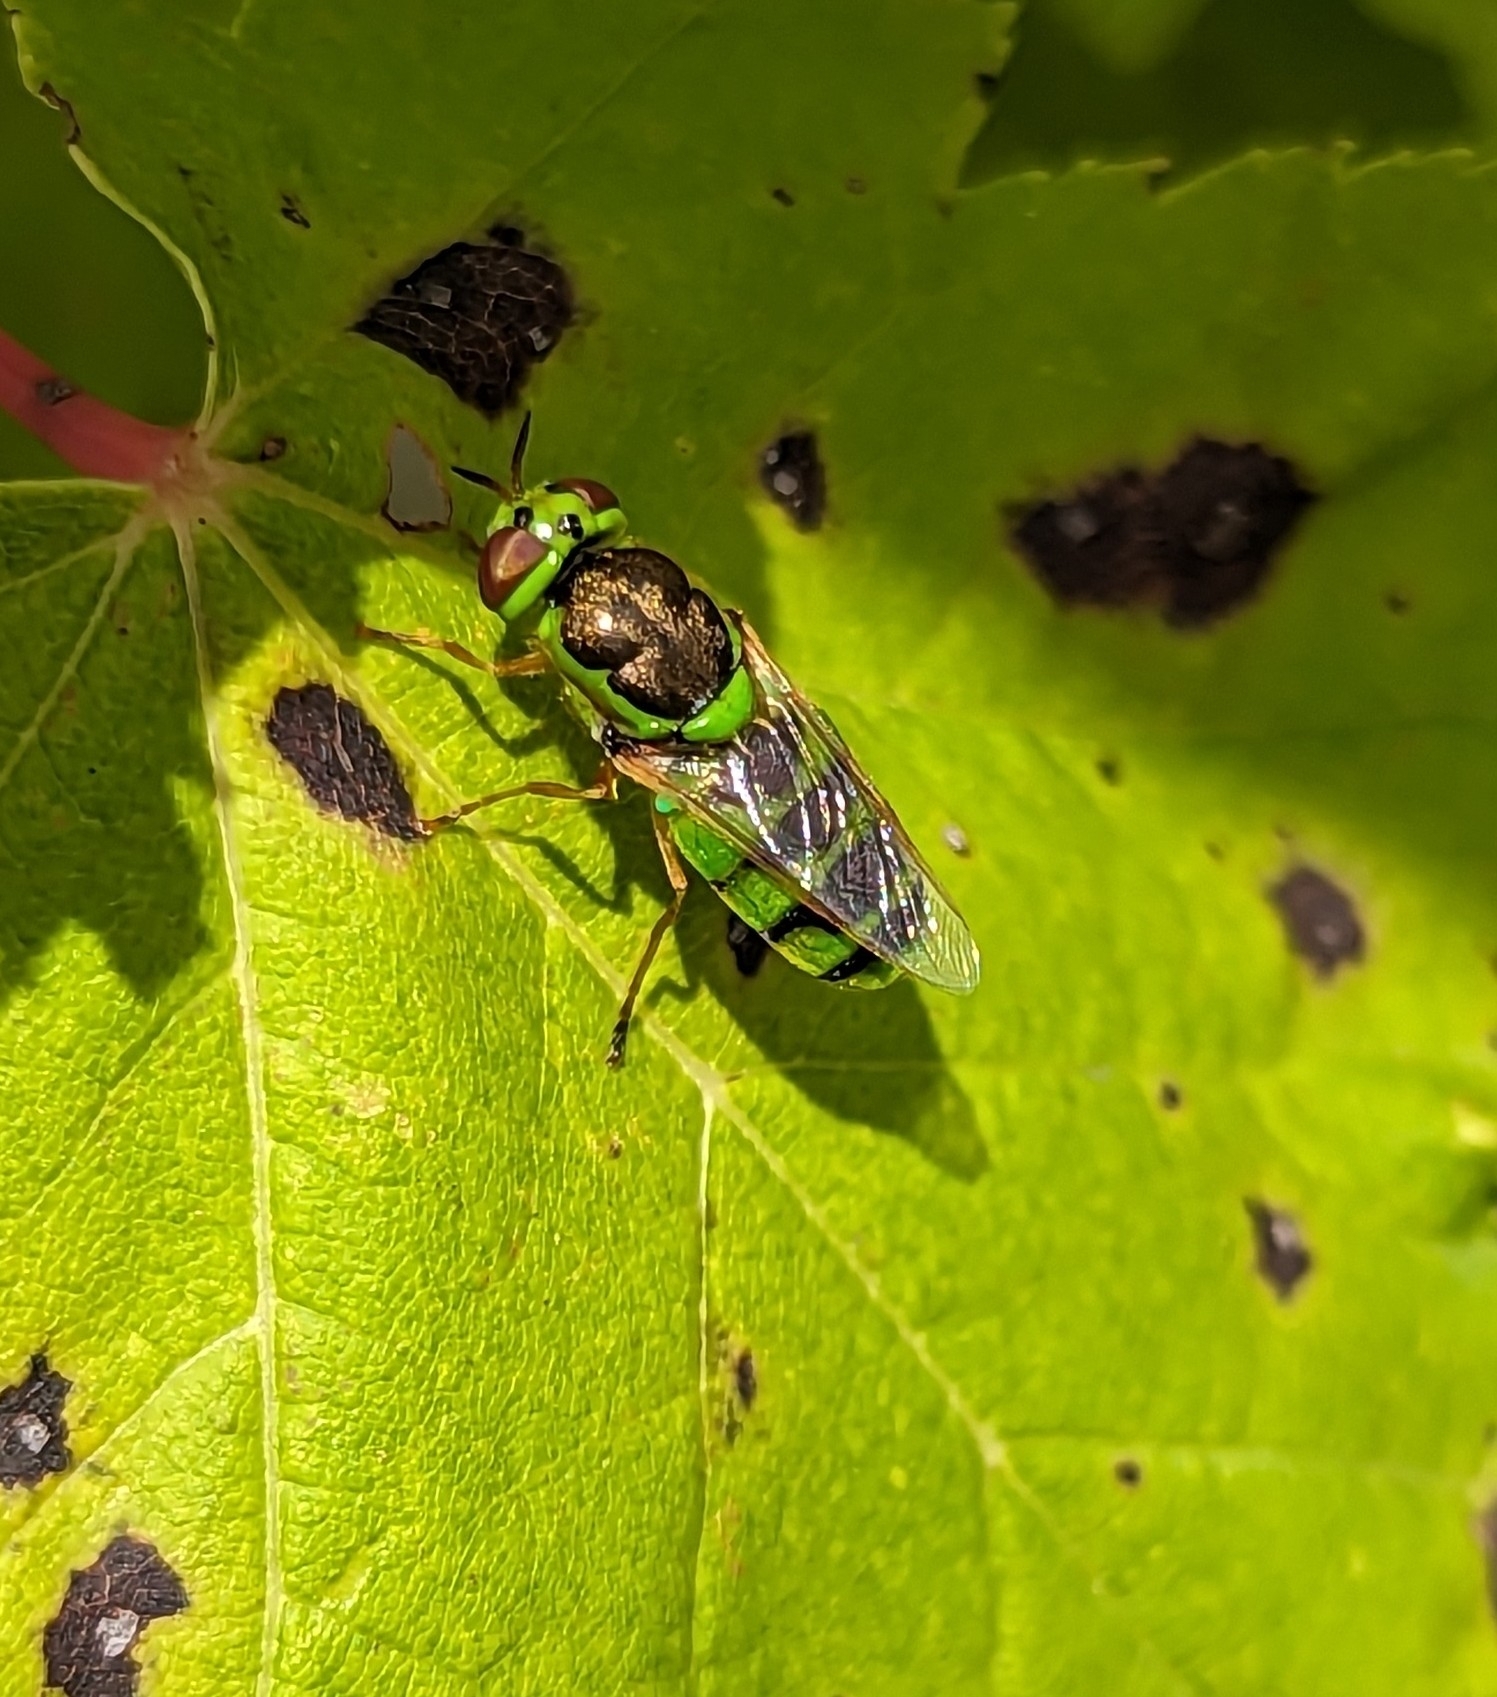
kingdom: Animalia
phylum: Arthropoda
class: Insecta
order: Diptera
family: Stratiomyidae
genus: Odontomyia
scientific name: Odontomyia cincta
